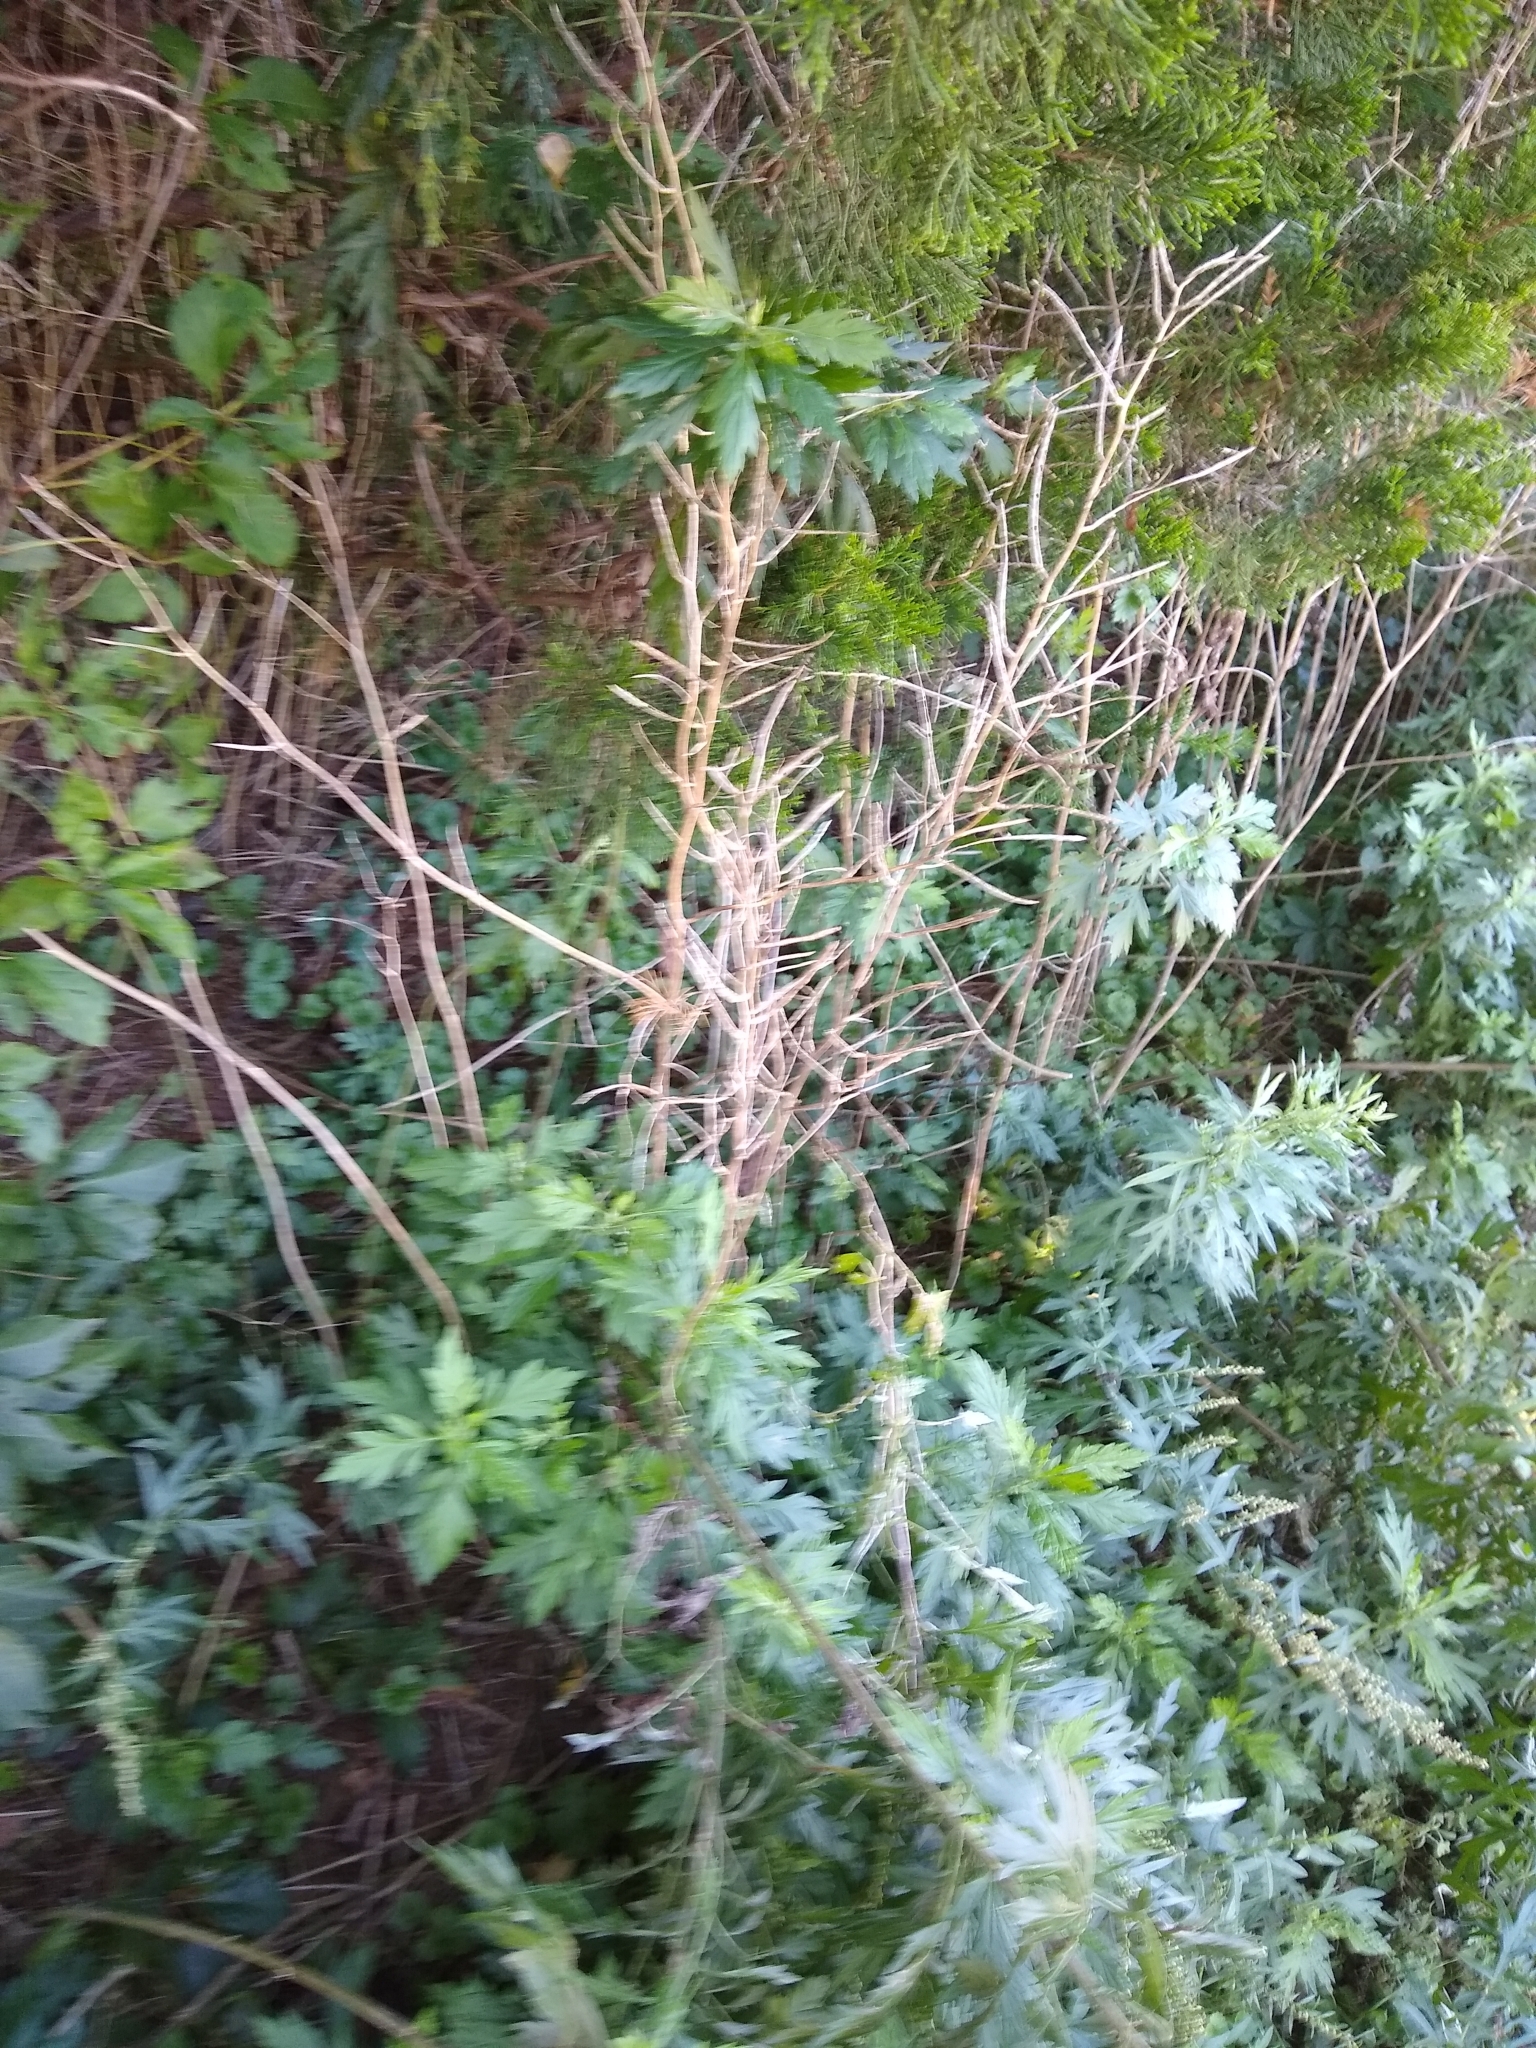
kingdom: Plantae
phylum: Tracheophyta
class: Magnoliopsida
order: Brassicales
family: Brassicaceae
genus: Alliaria
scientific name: Alliaria petiolata
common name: Garlic mustard
